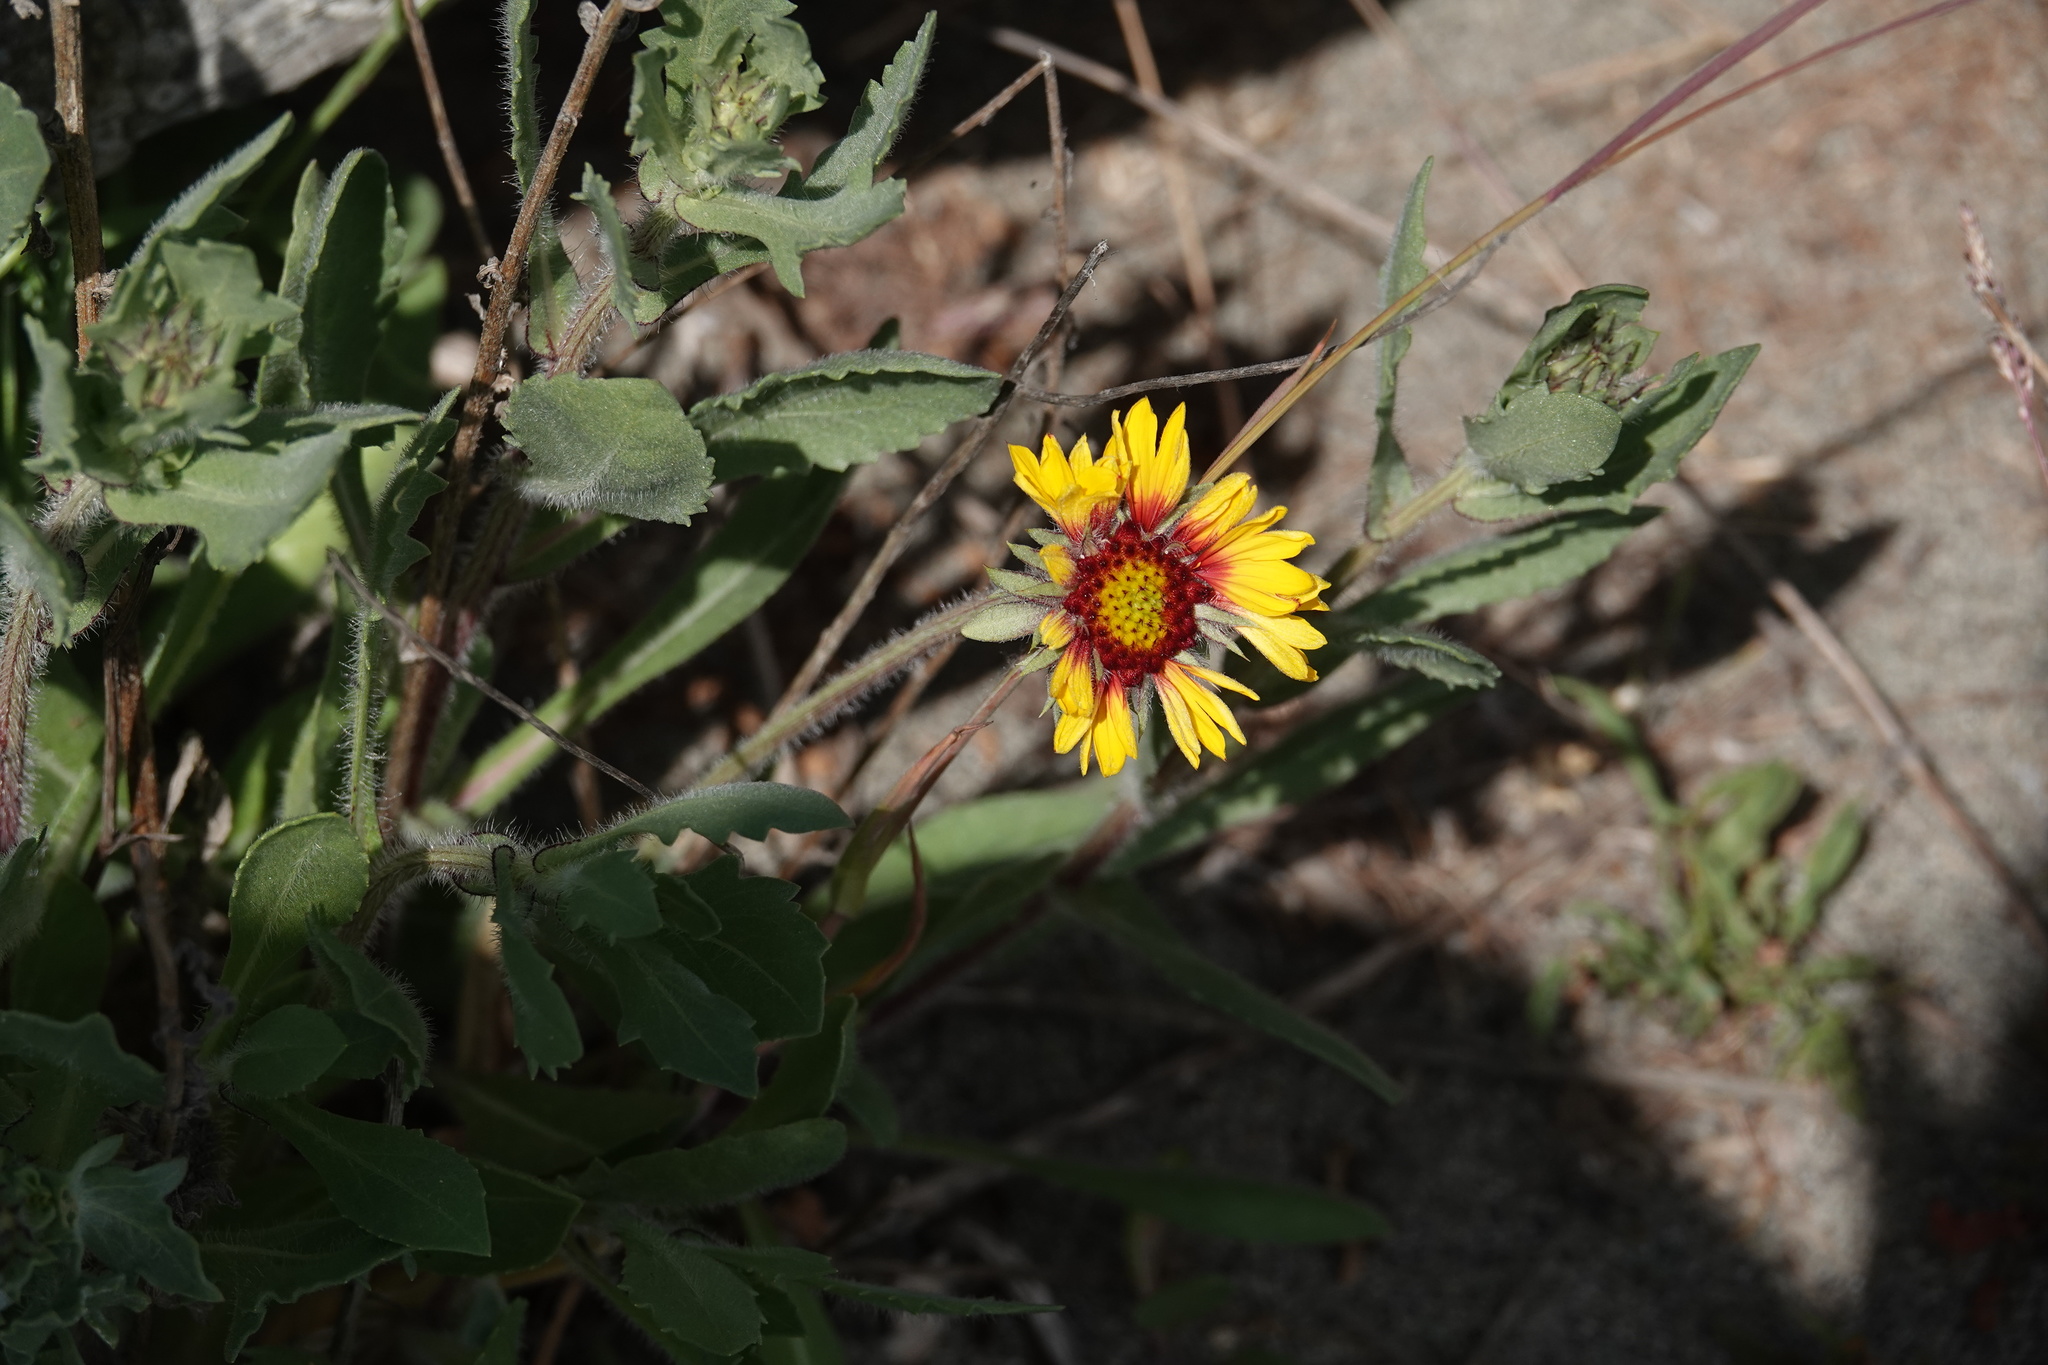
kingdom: Plantae
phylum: Tracheophyta
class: Magnoliopsida
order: Asterales
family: Asteraceae
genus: Gaillardia
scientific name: Gaillardia aristata
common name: Blanket-flower
